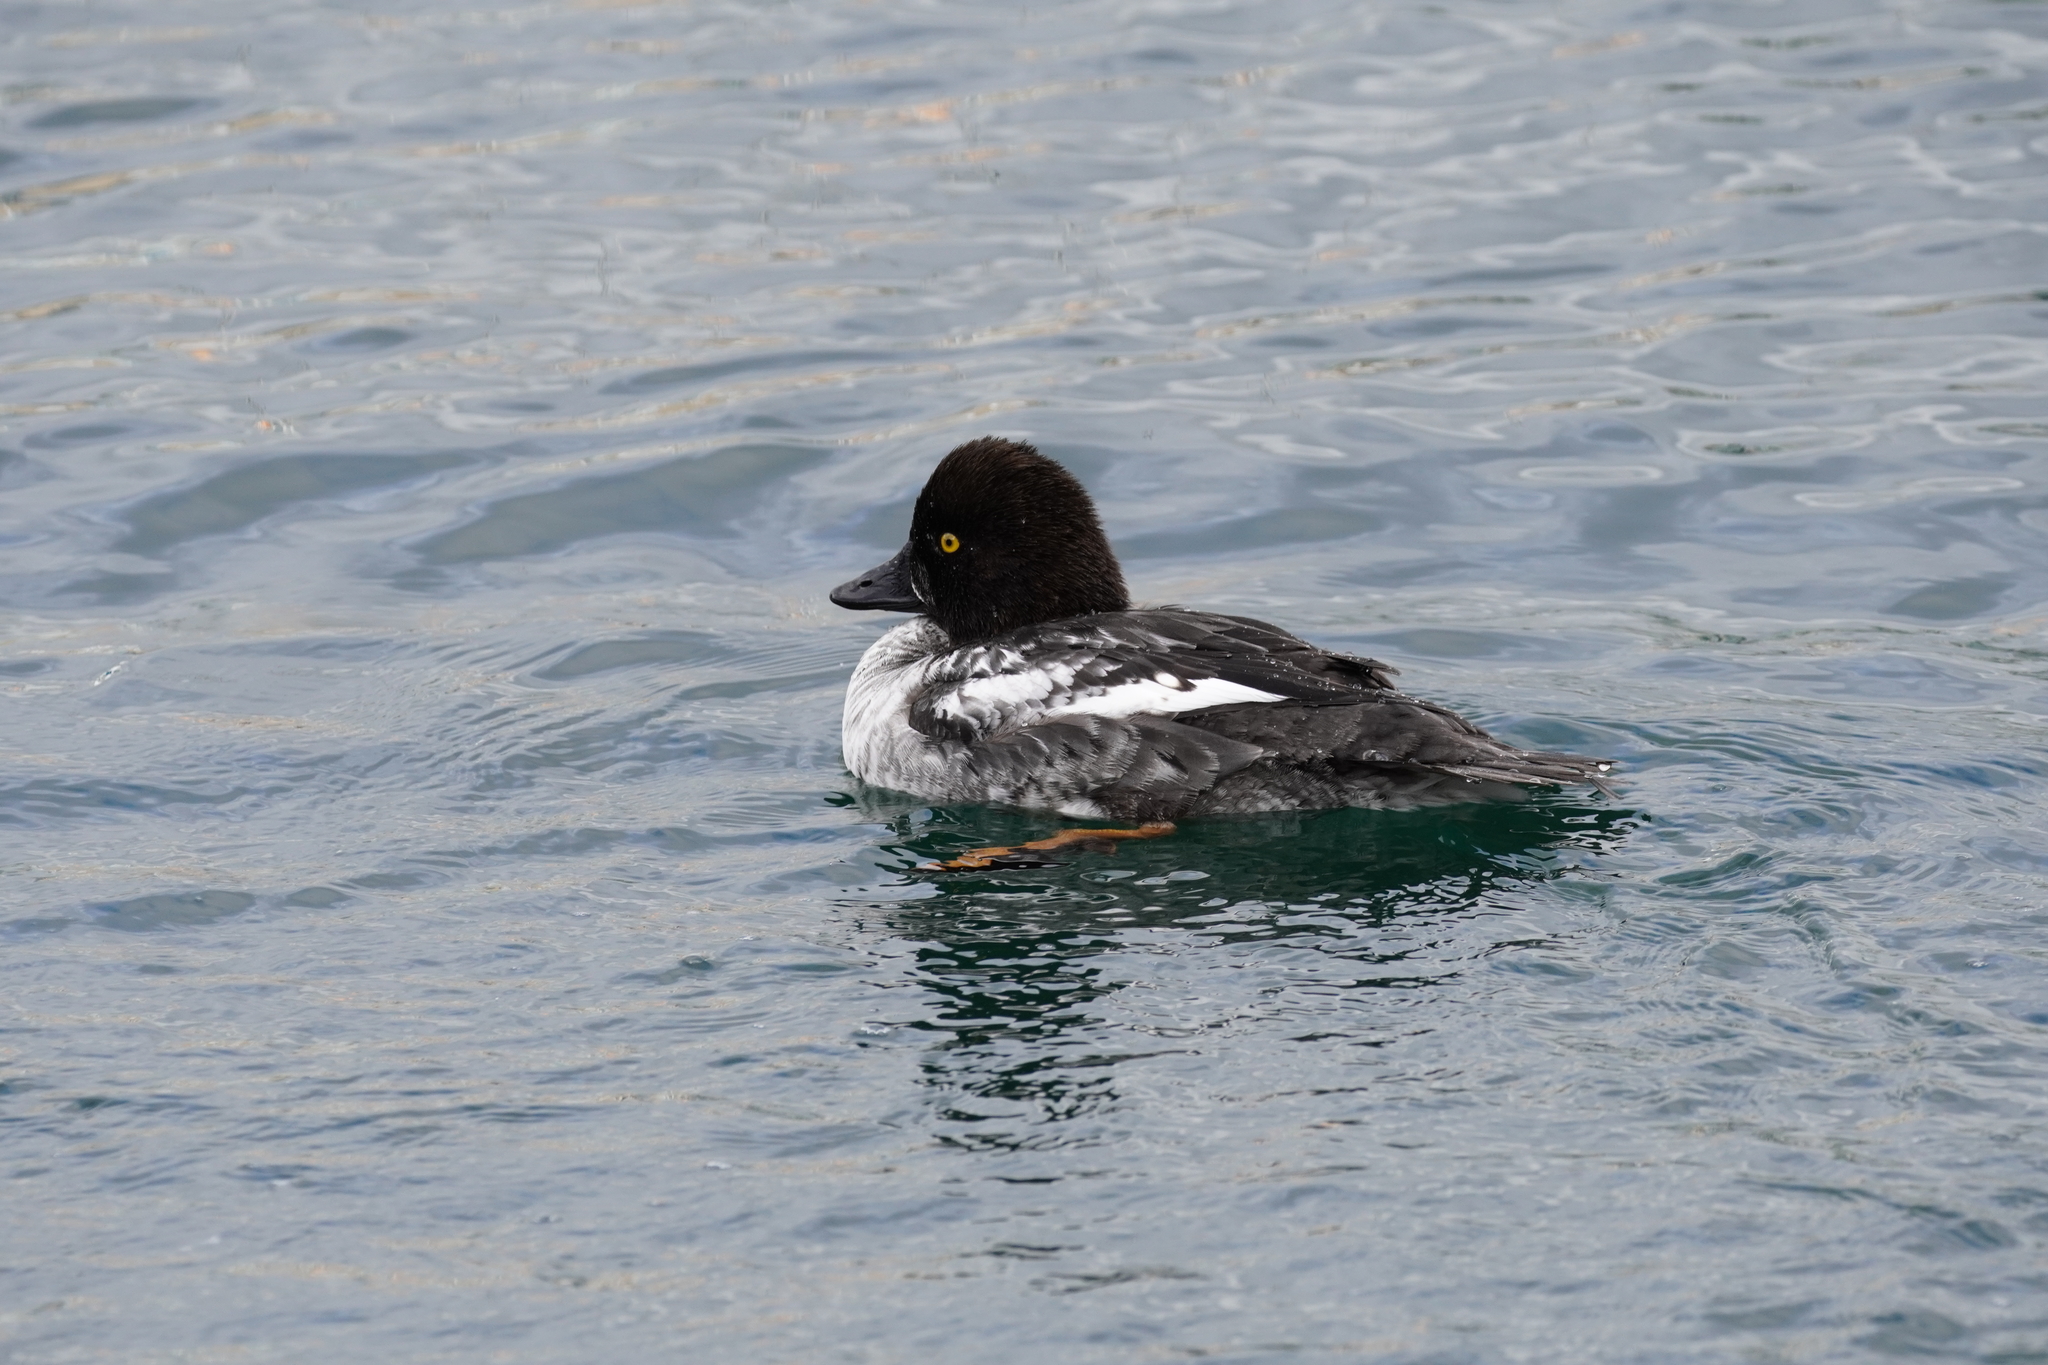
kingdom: Animalia
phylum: Chordata
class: Aves
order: Anseriformes
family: Anatidae
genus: Bucephala
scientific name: Bucephala clangula
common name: Common goldeneye
